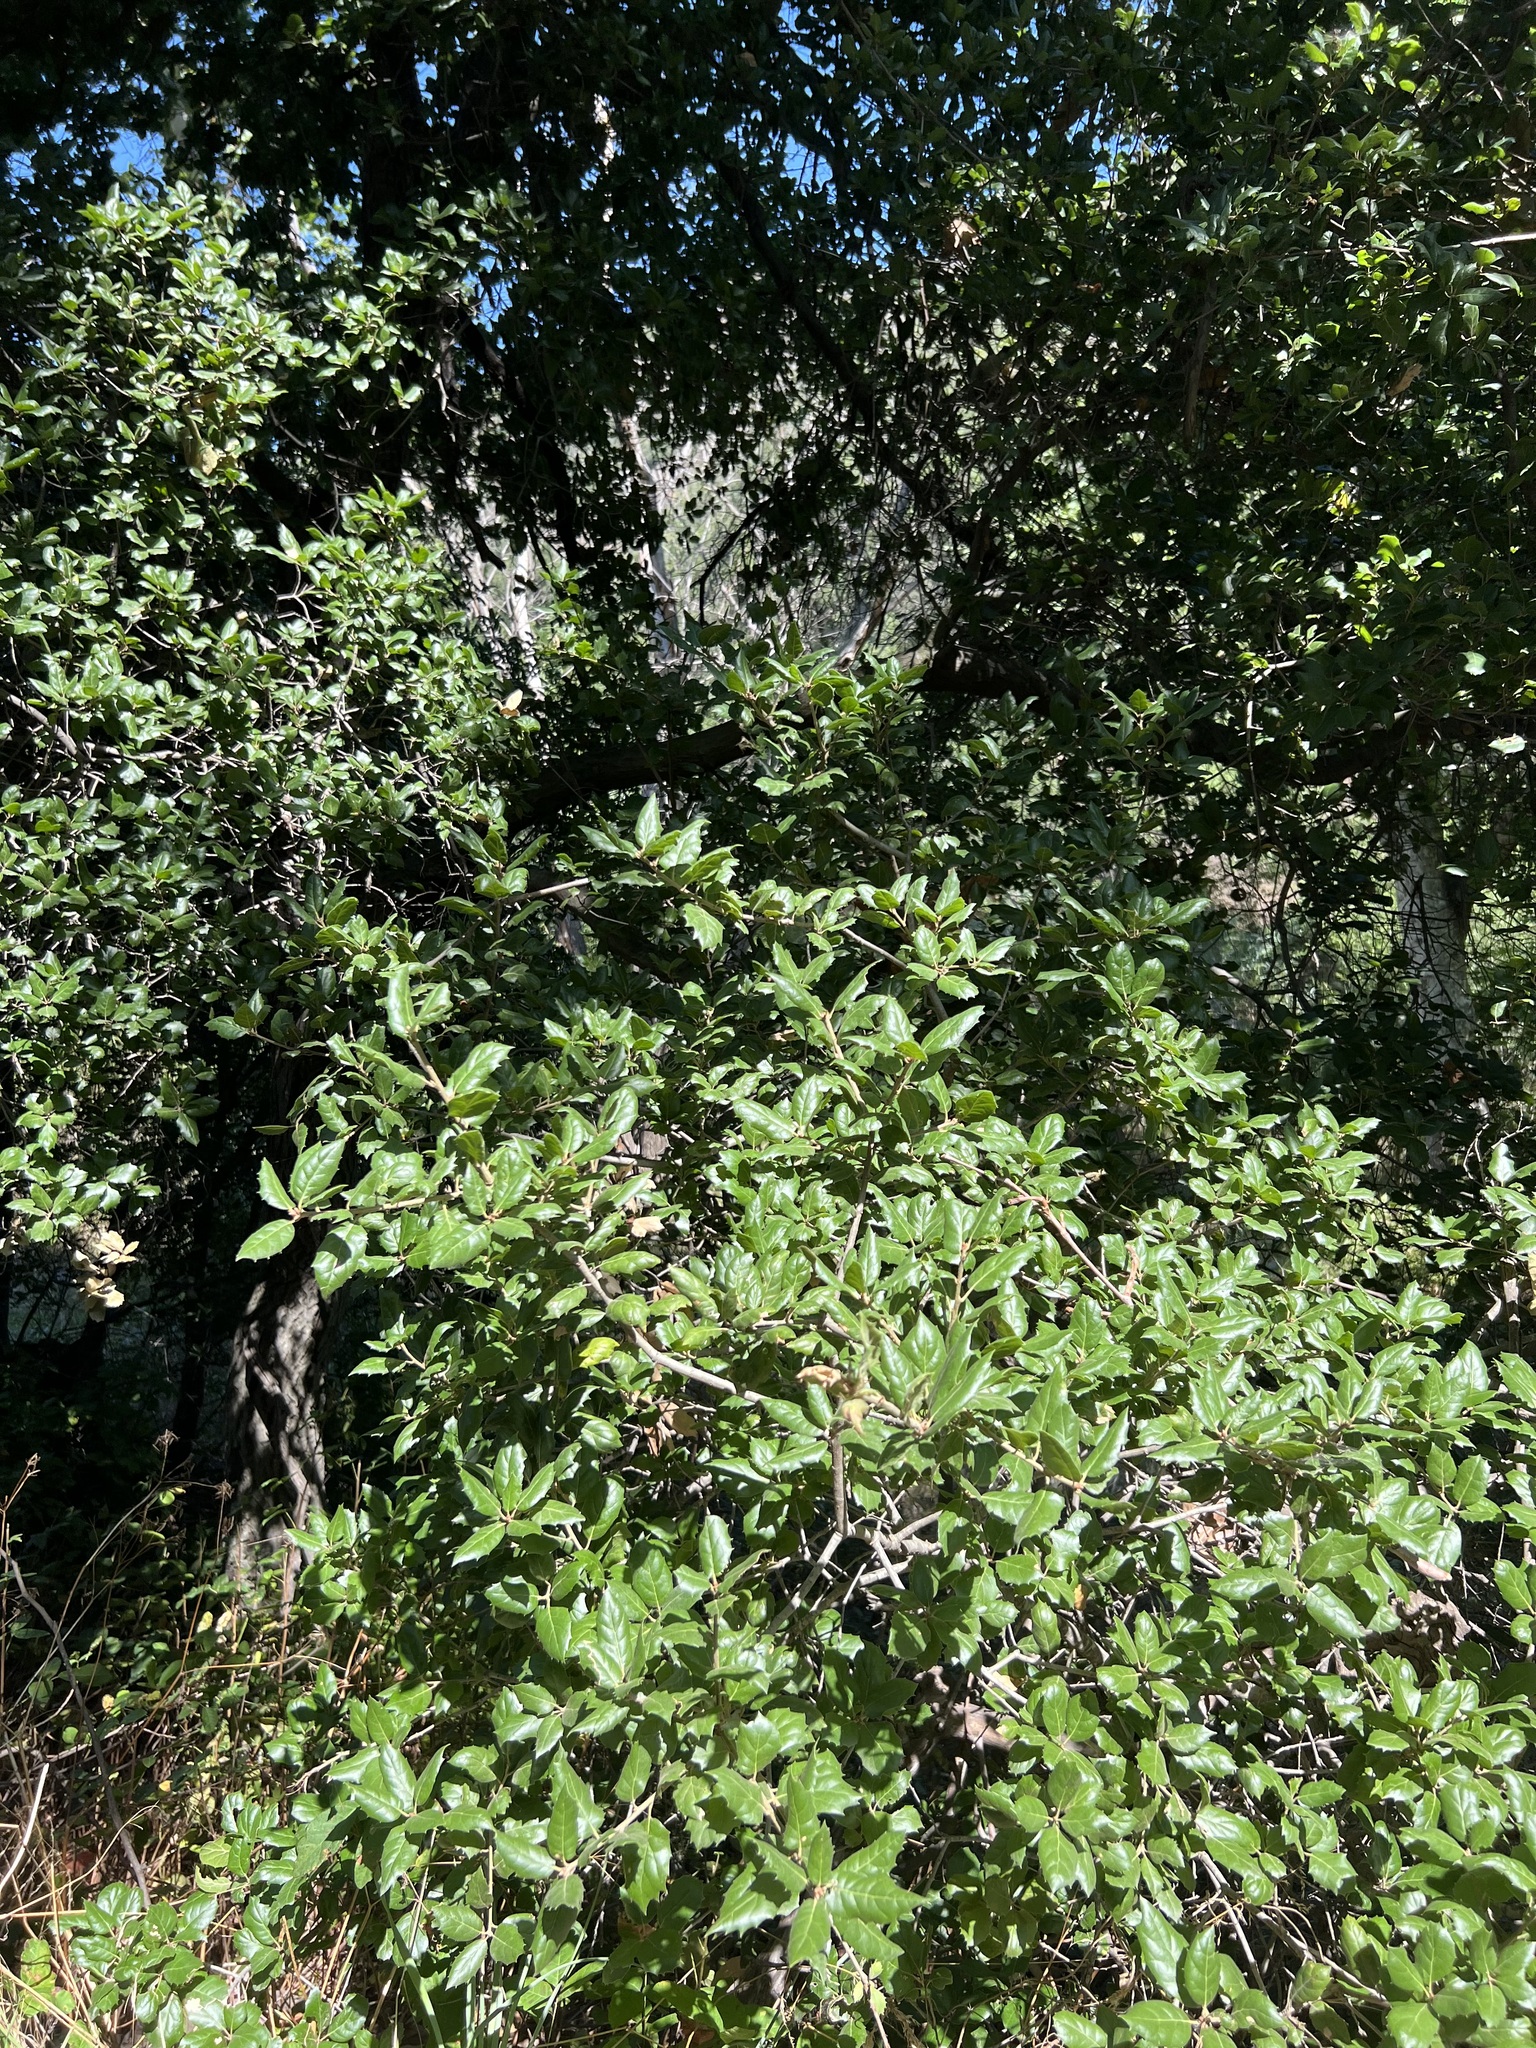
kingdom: Plantae
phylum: Tracheophyta
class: Magnoliopsida
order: Fagales
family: Fagaceae
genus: Quercus
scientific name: Quercus agrifolia
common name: California live oak
